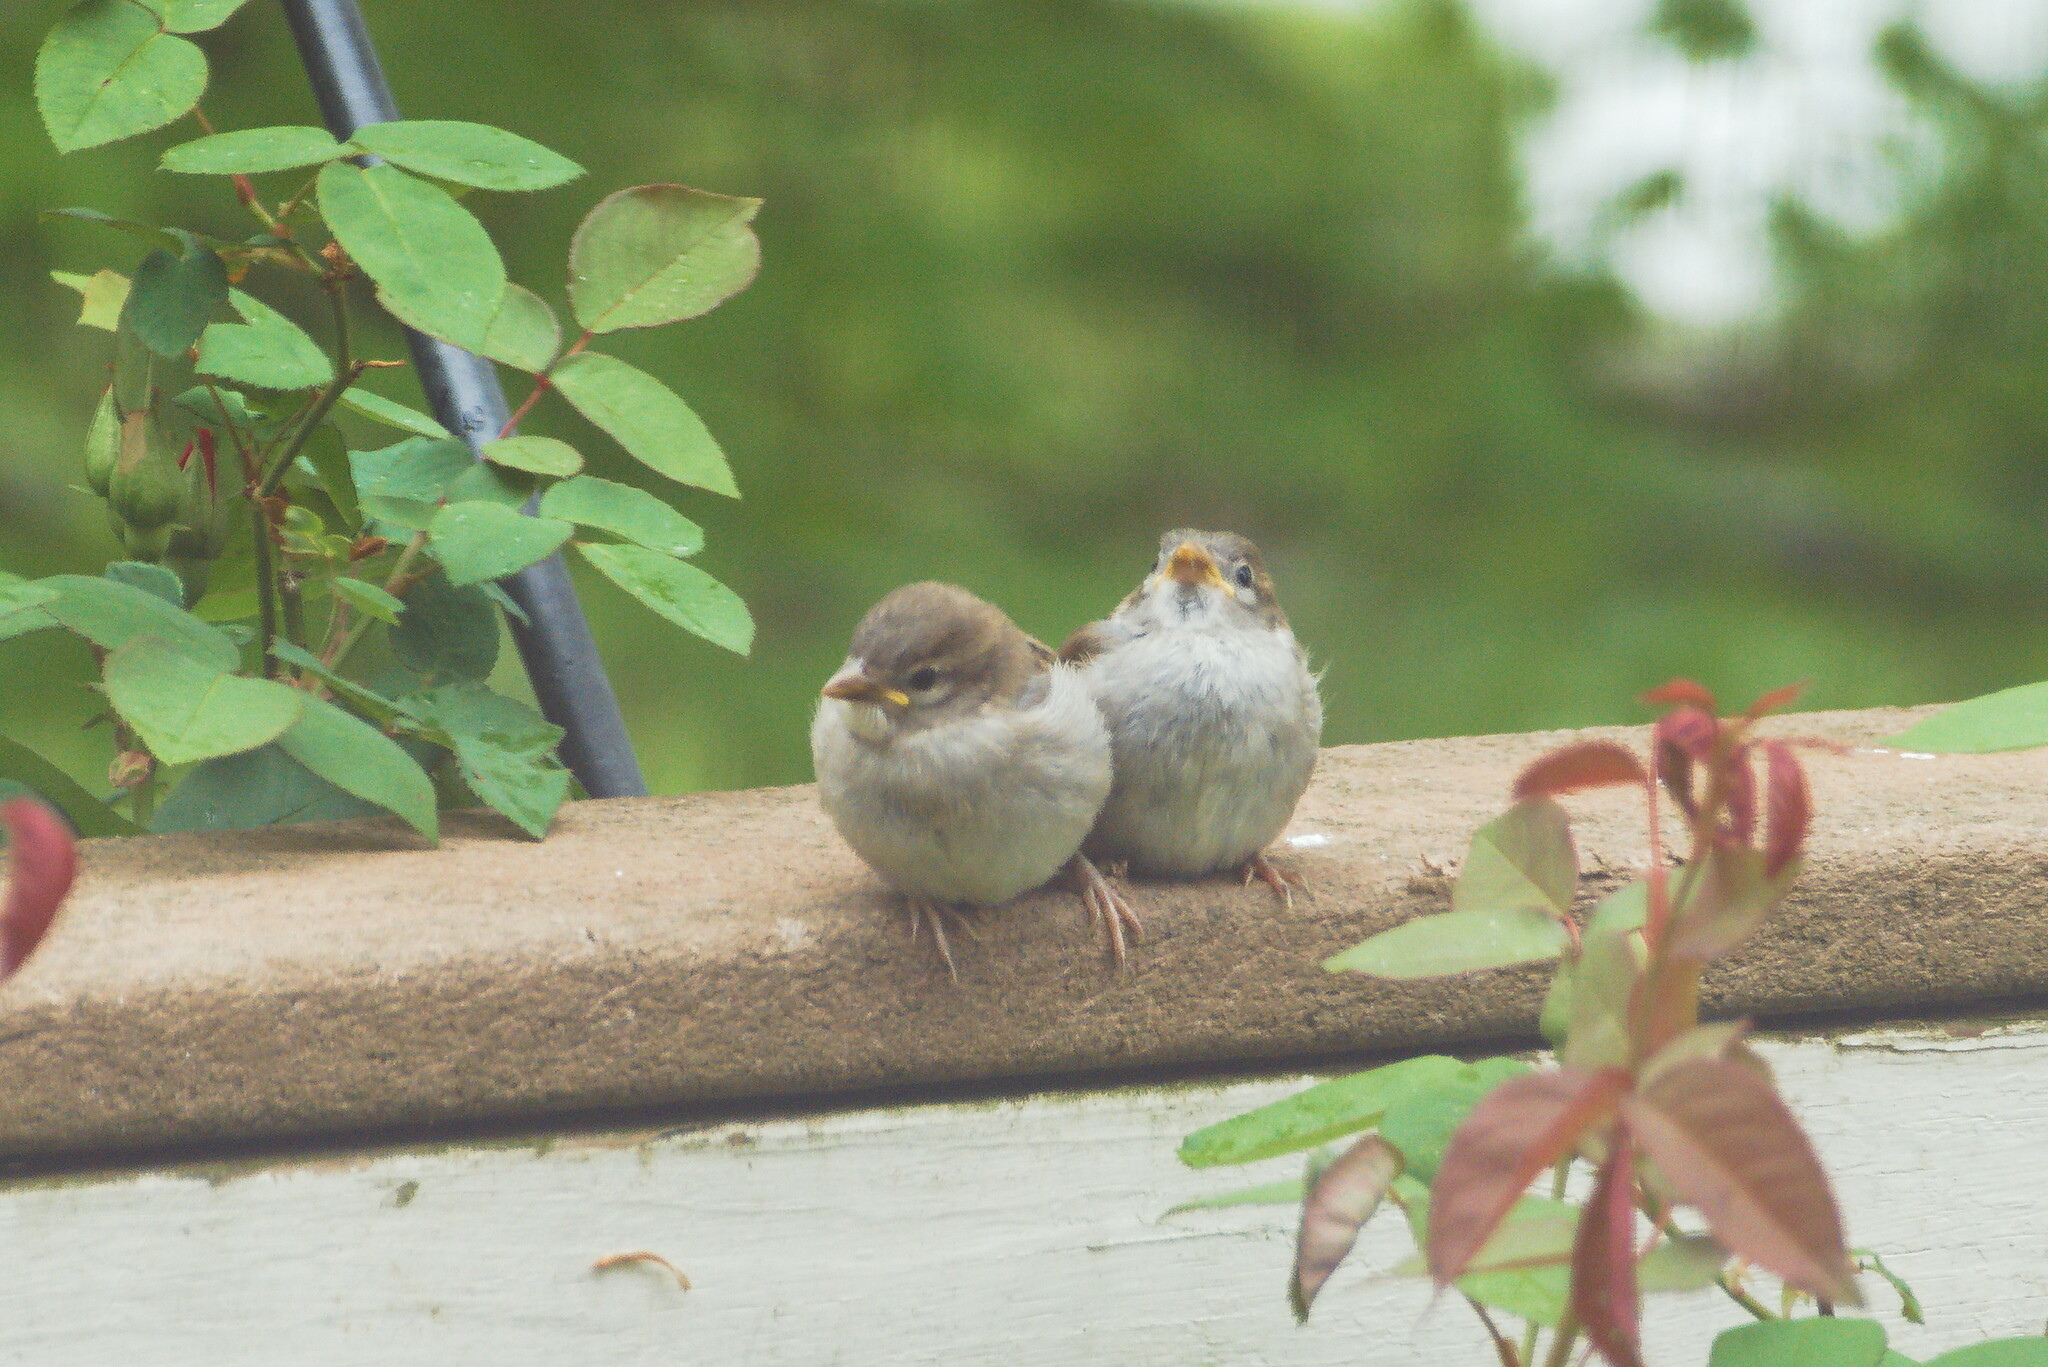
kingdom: Animalia
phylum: Chordata
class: Aves
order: Passeriformes
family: Passeridae
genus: Passer
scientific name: Passer domesticus
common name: House sparrow
